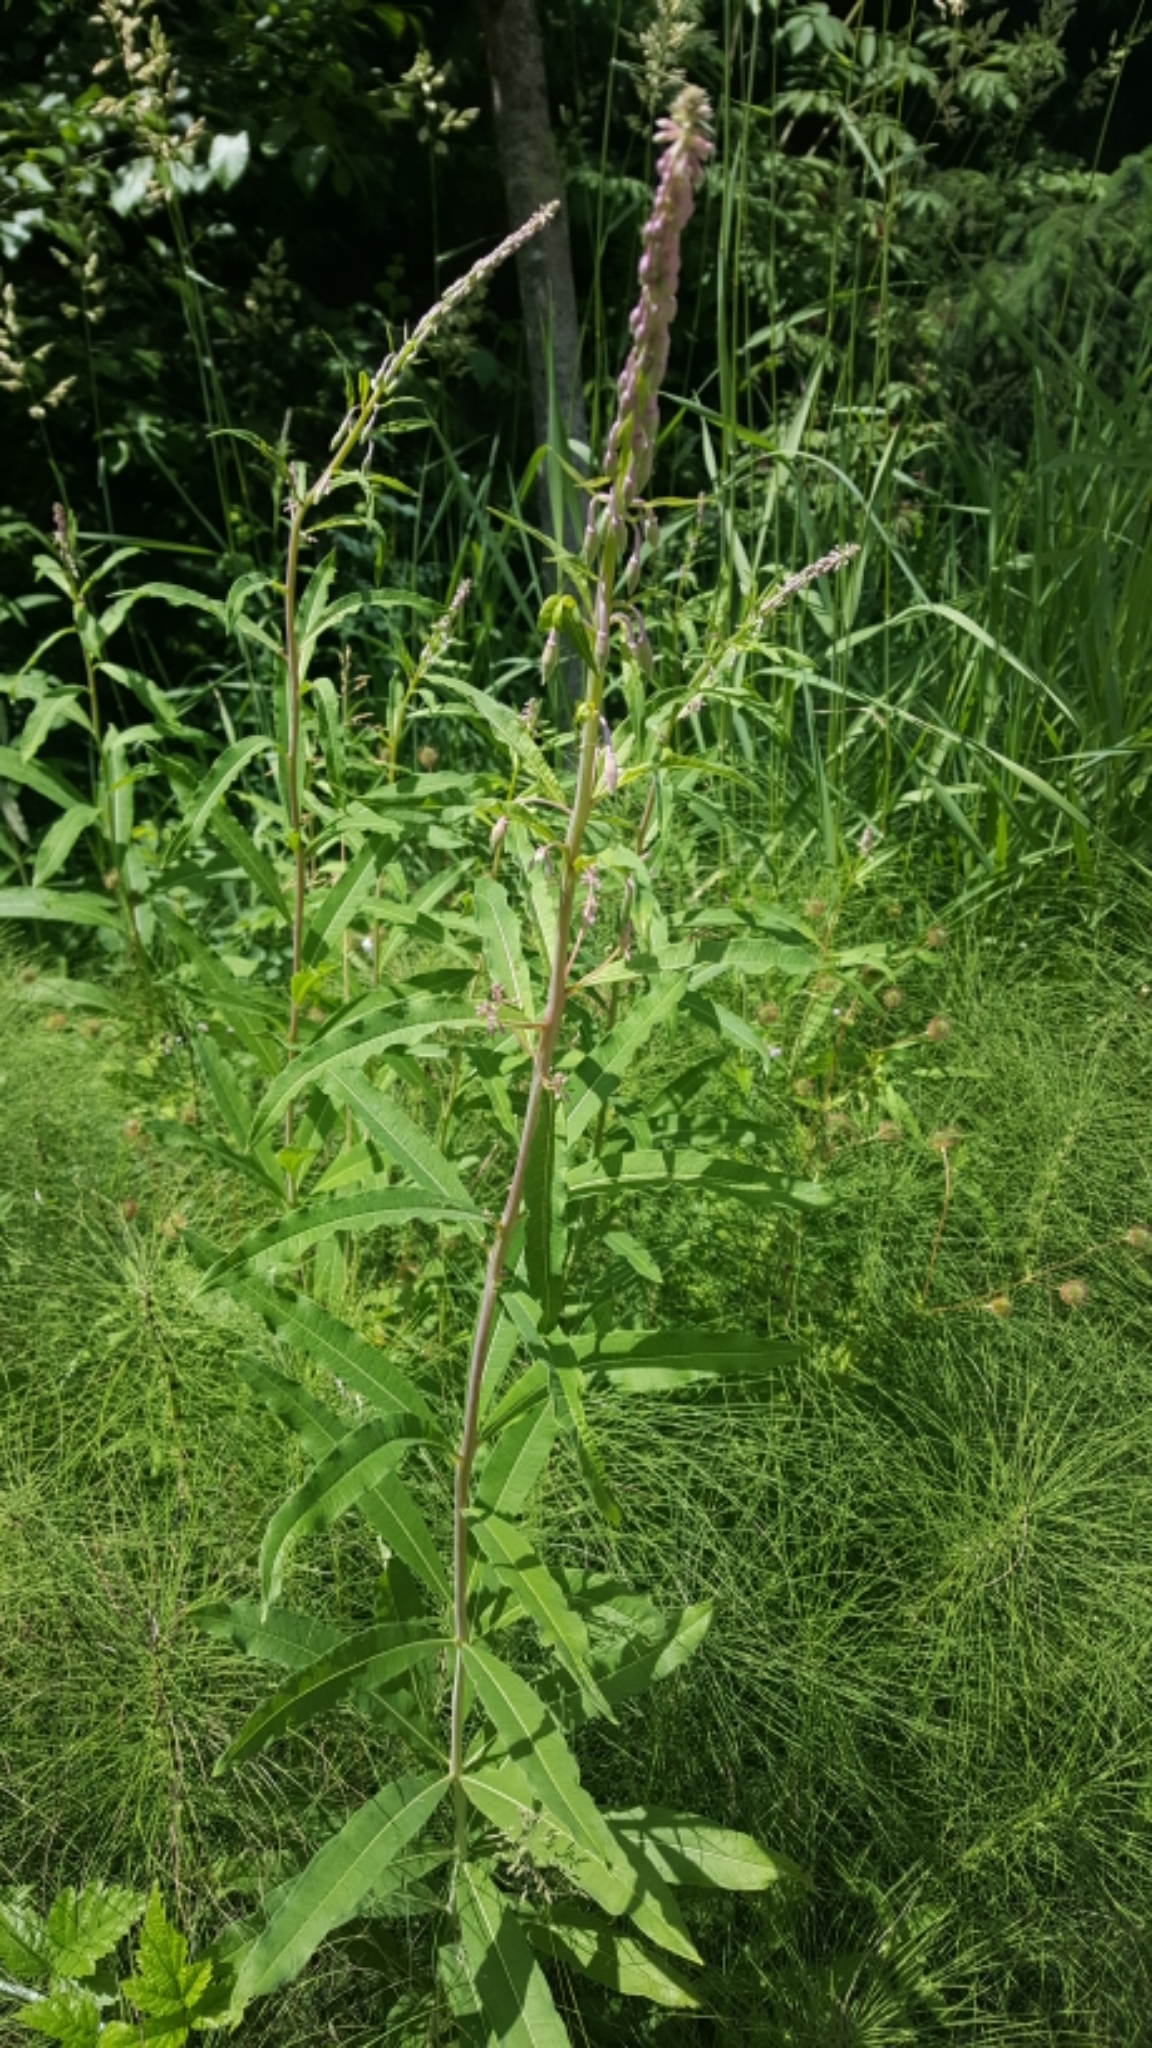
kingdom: Plantae
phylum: Tracheophyta
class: Magnoliopsida
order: Myrtales
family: Onagraceae
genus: Chamaenerion
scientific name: Chamaenerion angustifolium
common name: Fireweed
